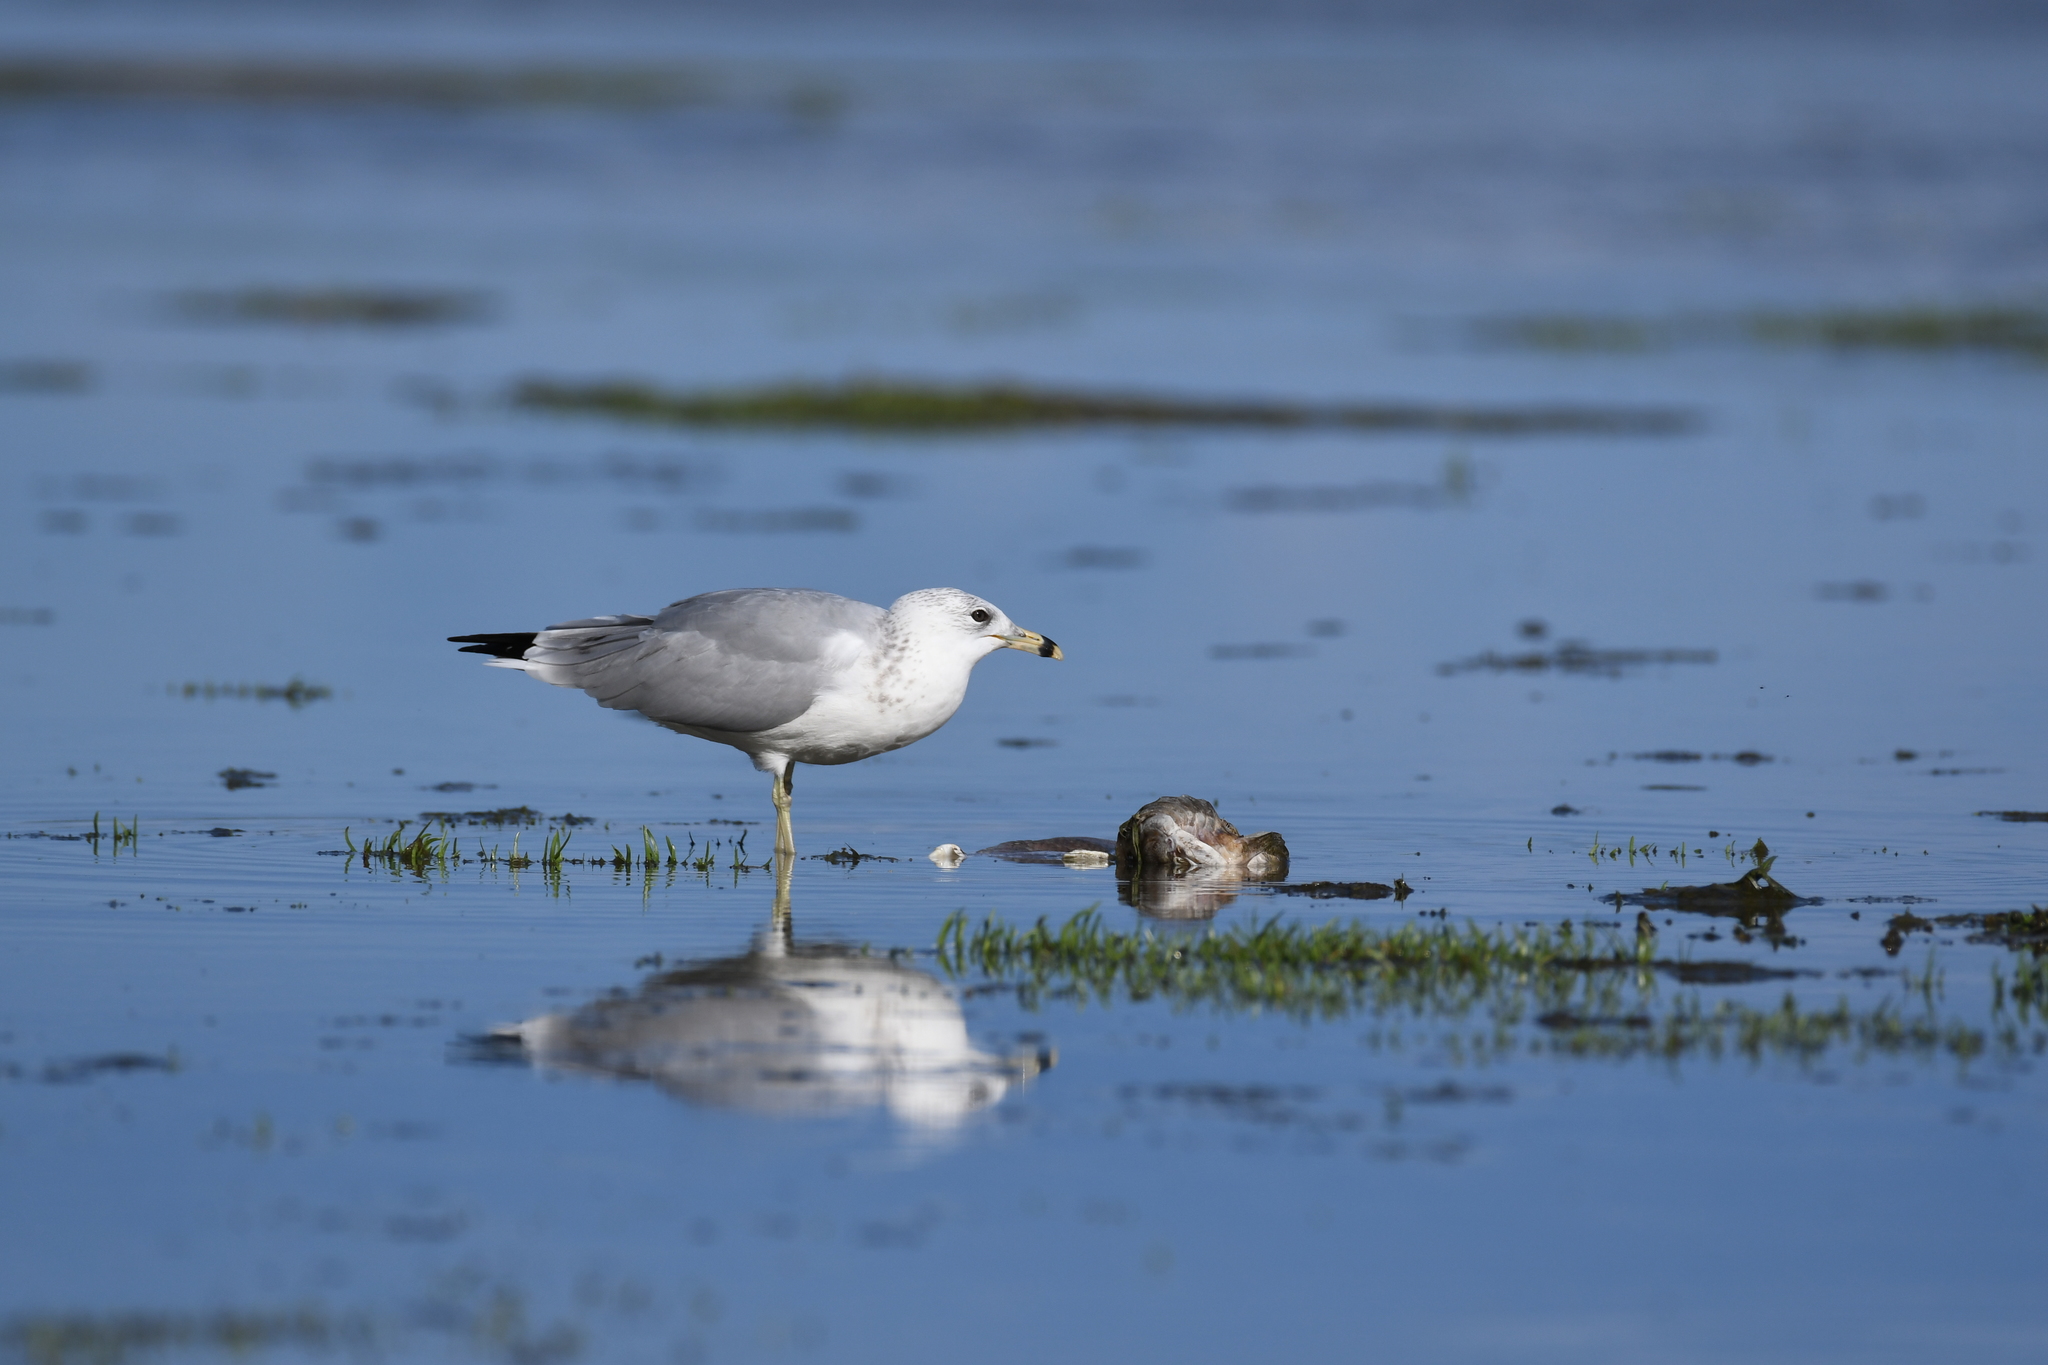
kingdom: Animalia
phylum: Chordata
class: Aves
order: Charadriiformes
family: Laridae
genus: Larus
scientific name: Larus delawarensis
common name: Ring-billed gull
